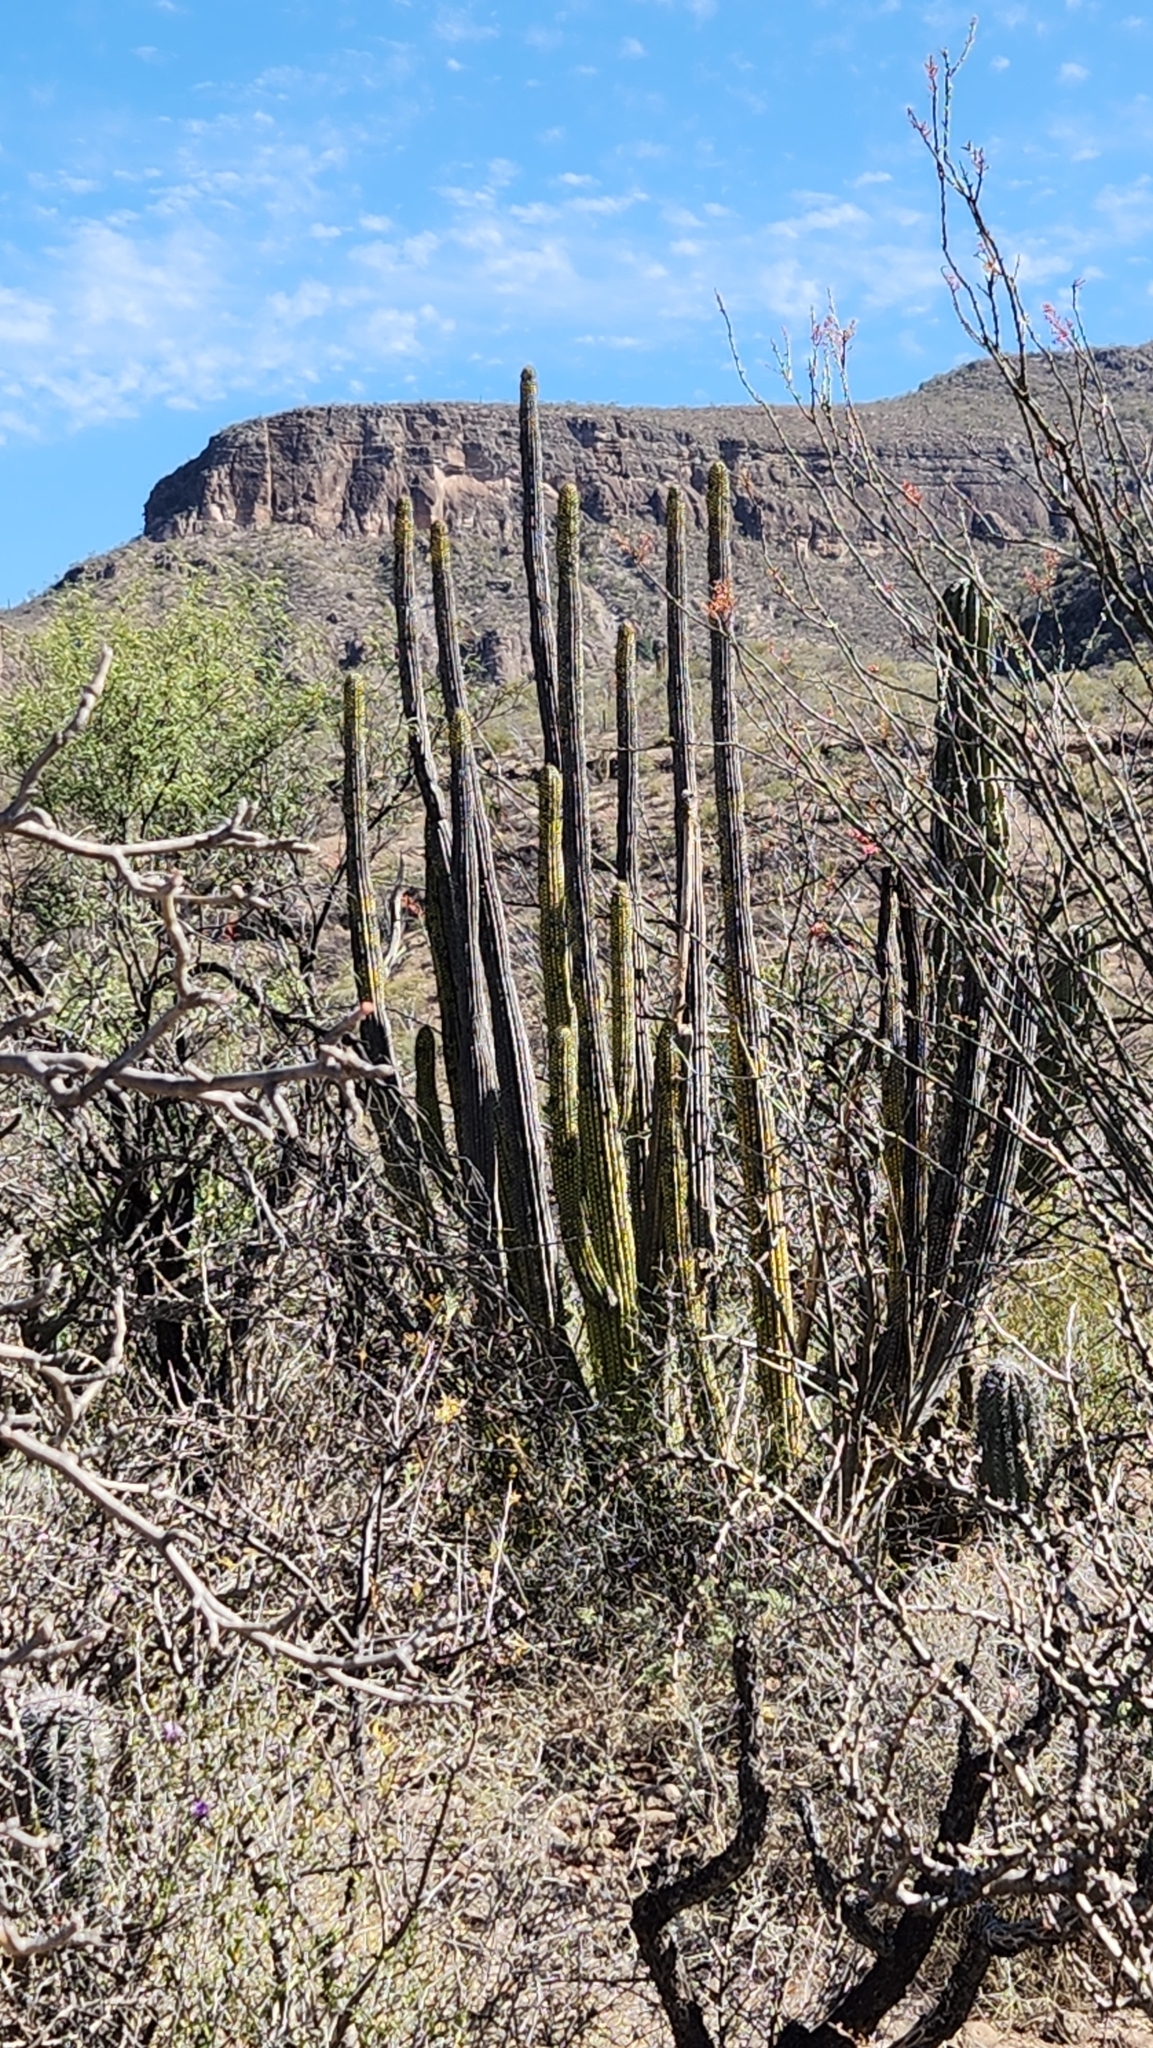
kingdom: Plantae
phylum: Tracheophyta
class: Magnoliopsida
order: Caryophyllales
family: Cactaceae
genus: Stenocereus
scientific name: Stenocereus thurberi
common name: Organ pipe cactus
